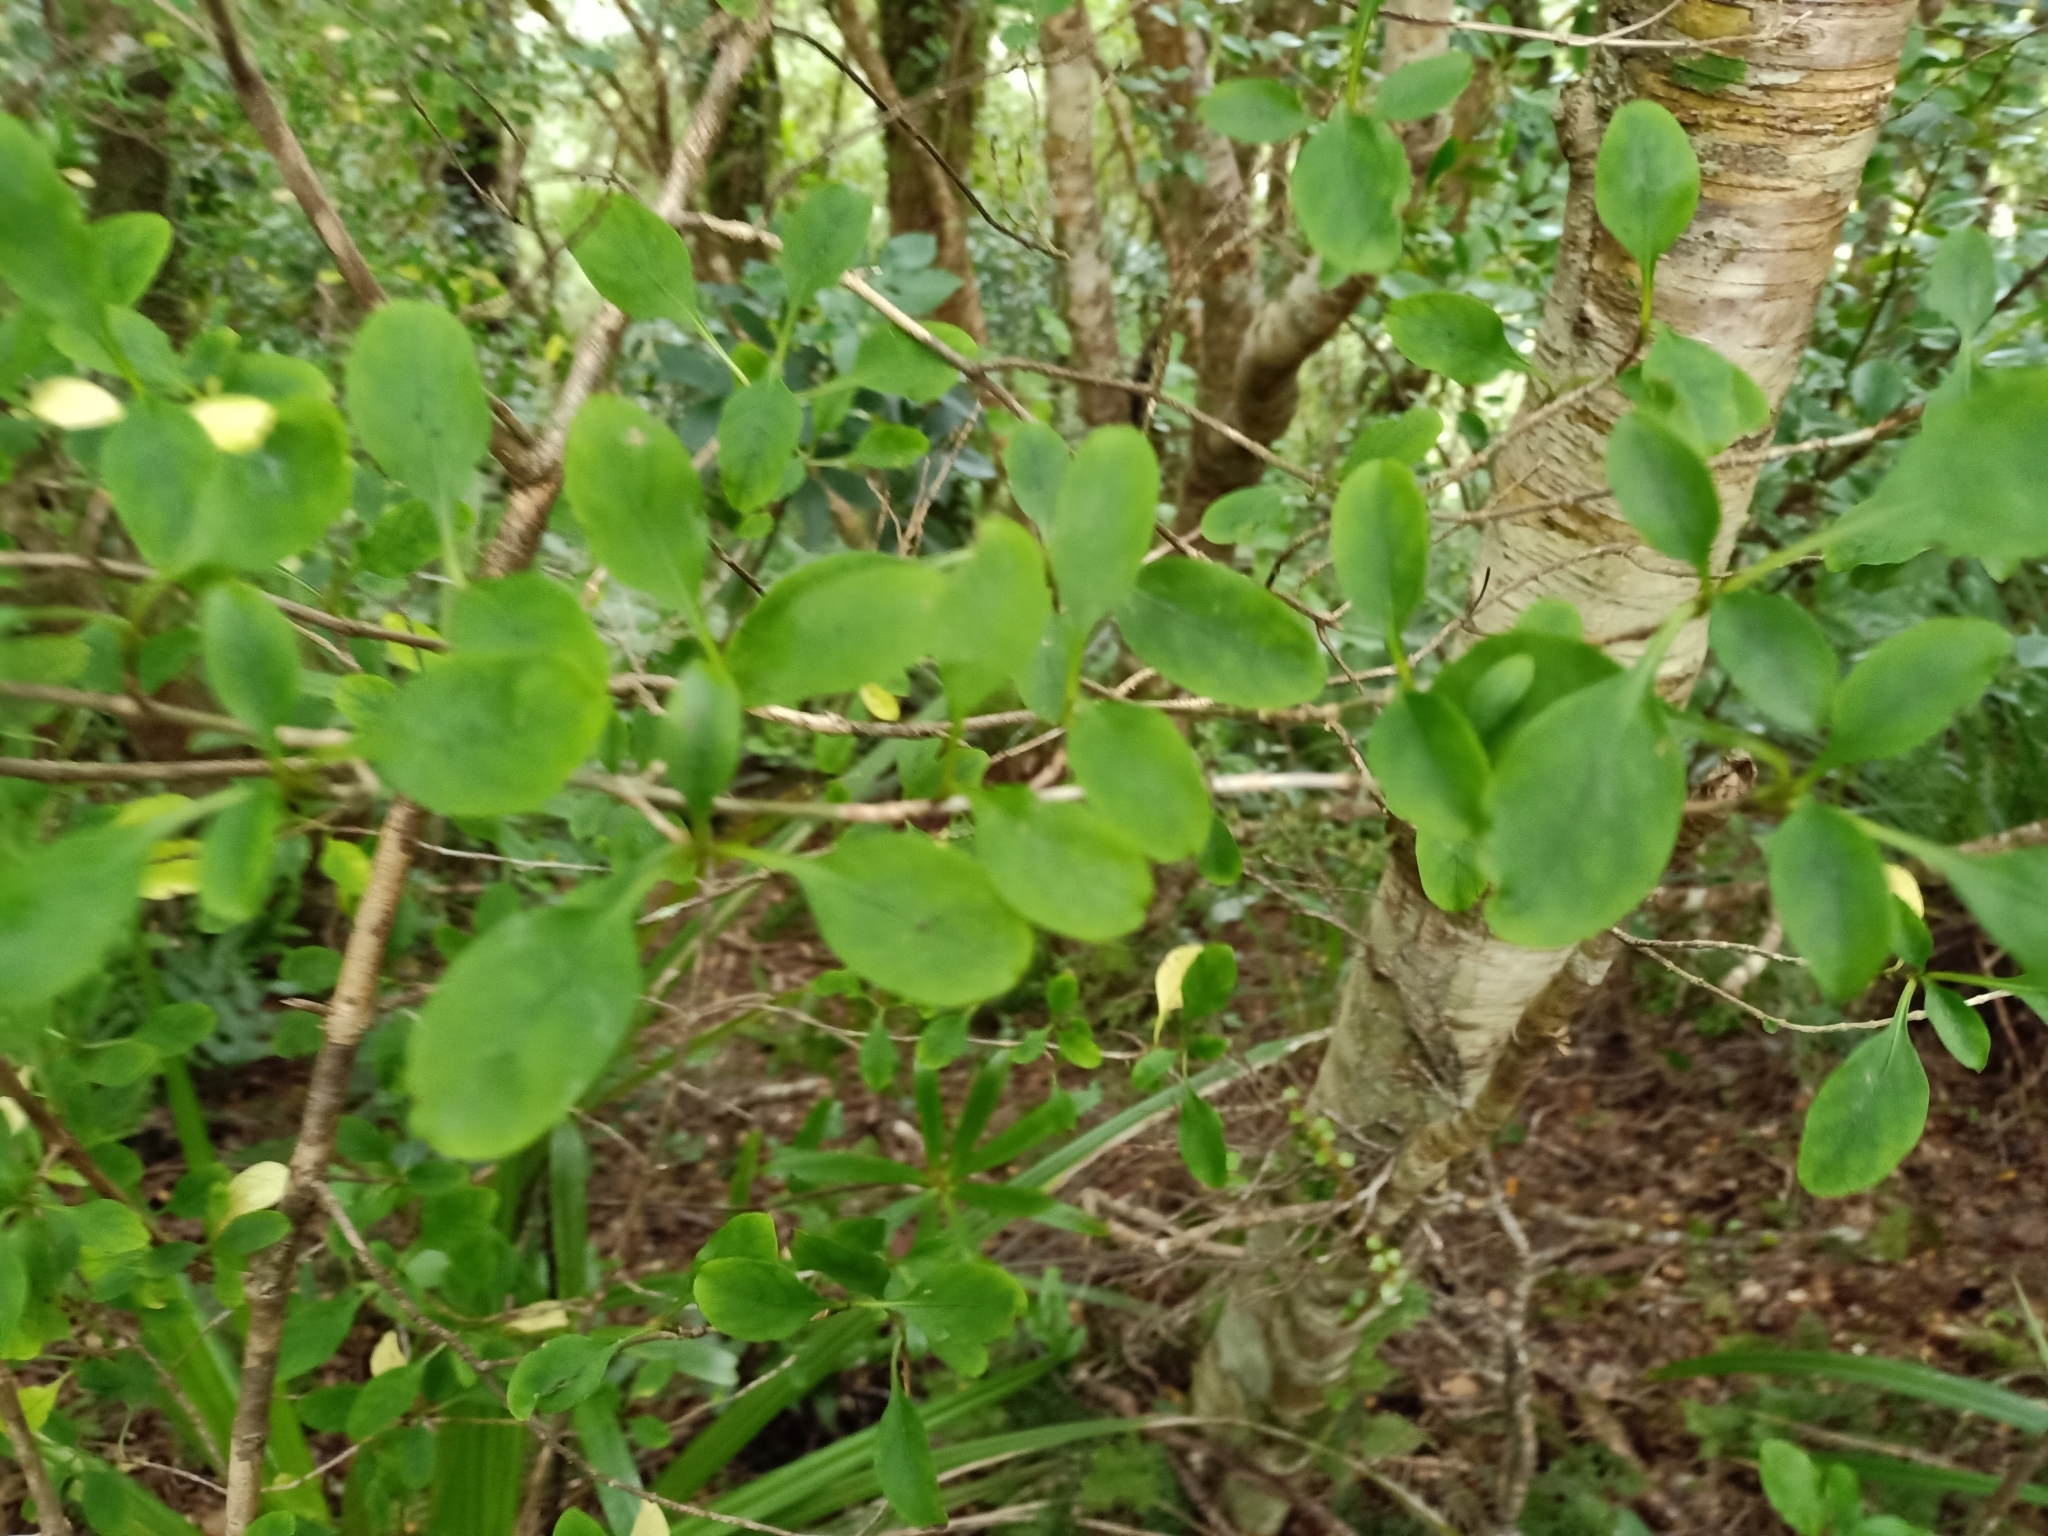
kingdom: Plantae
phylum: Tracheophyta
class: Magnoliopsida
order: Gentianales
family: Rubiaceae
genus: Coprosma
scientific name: Coprosma foetidissima
